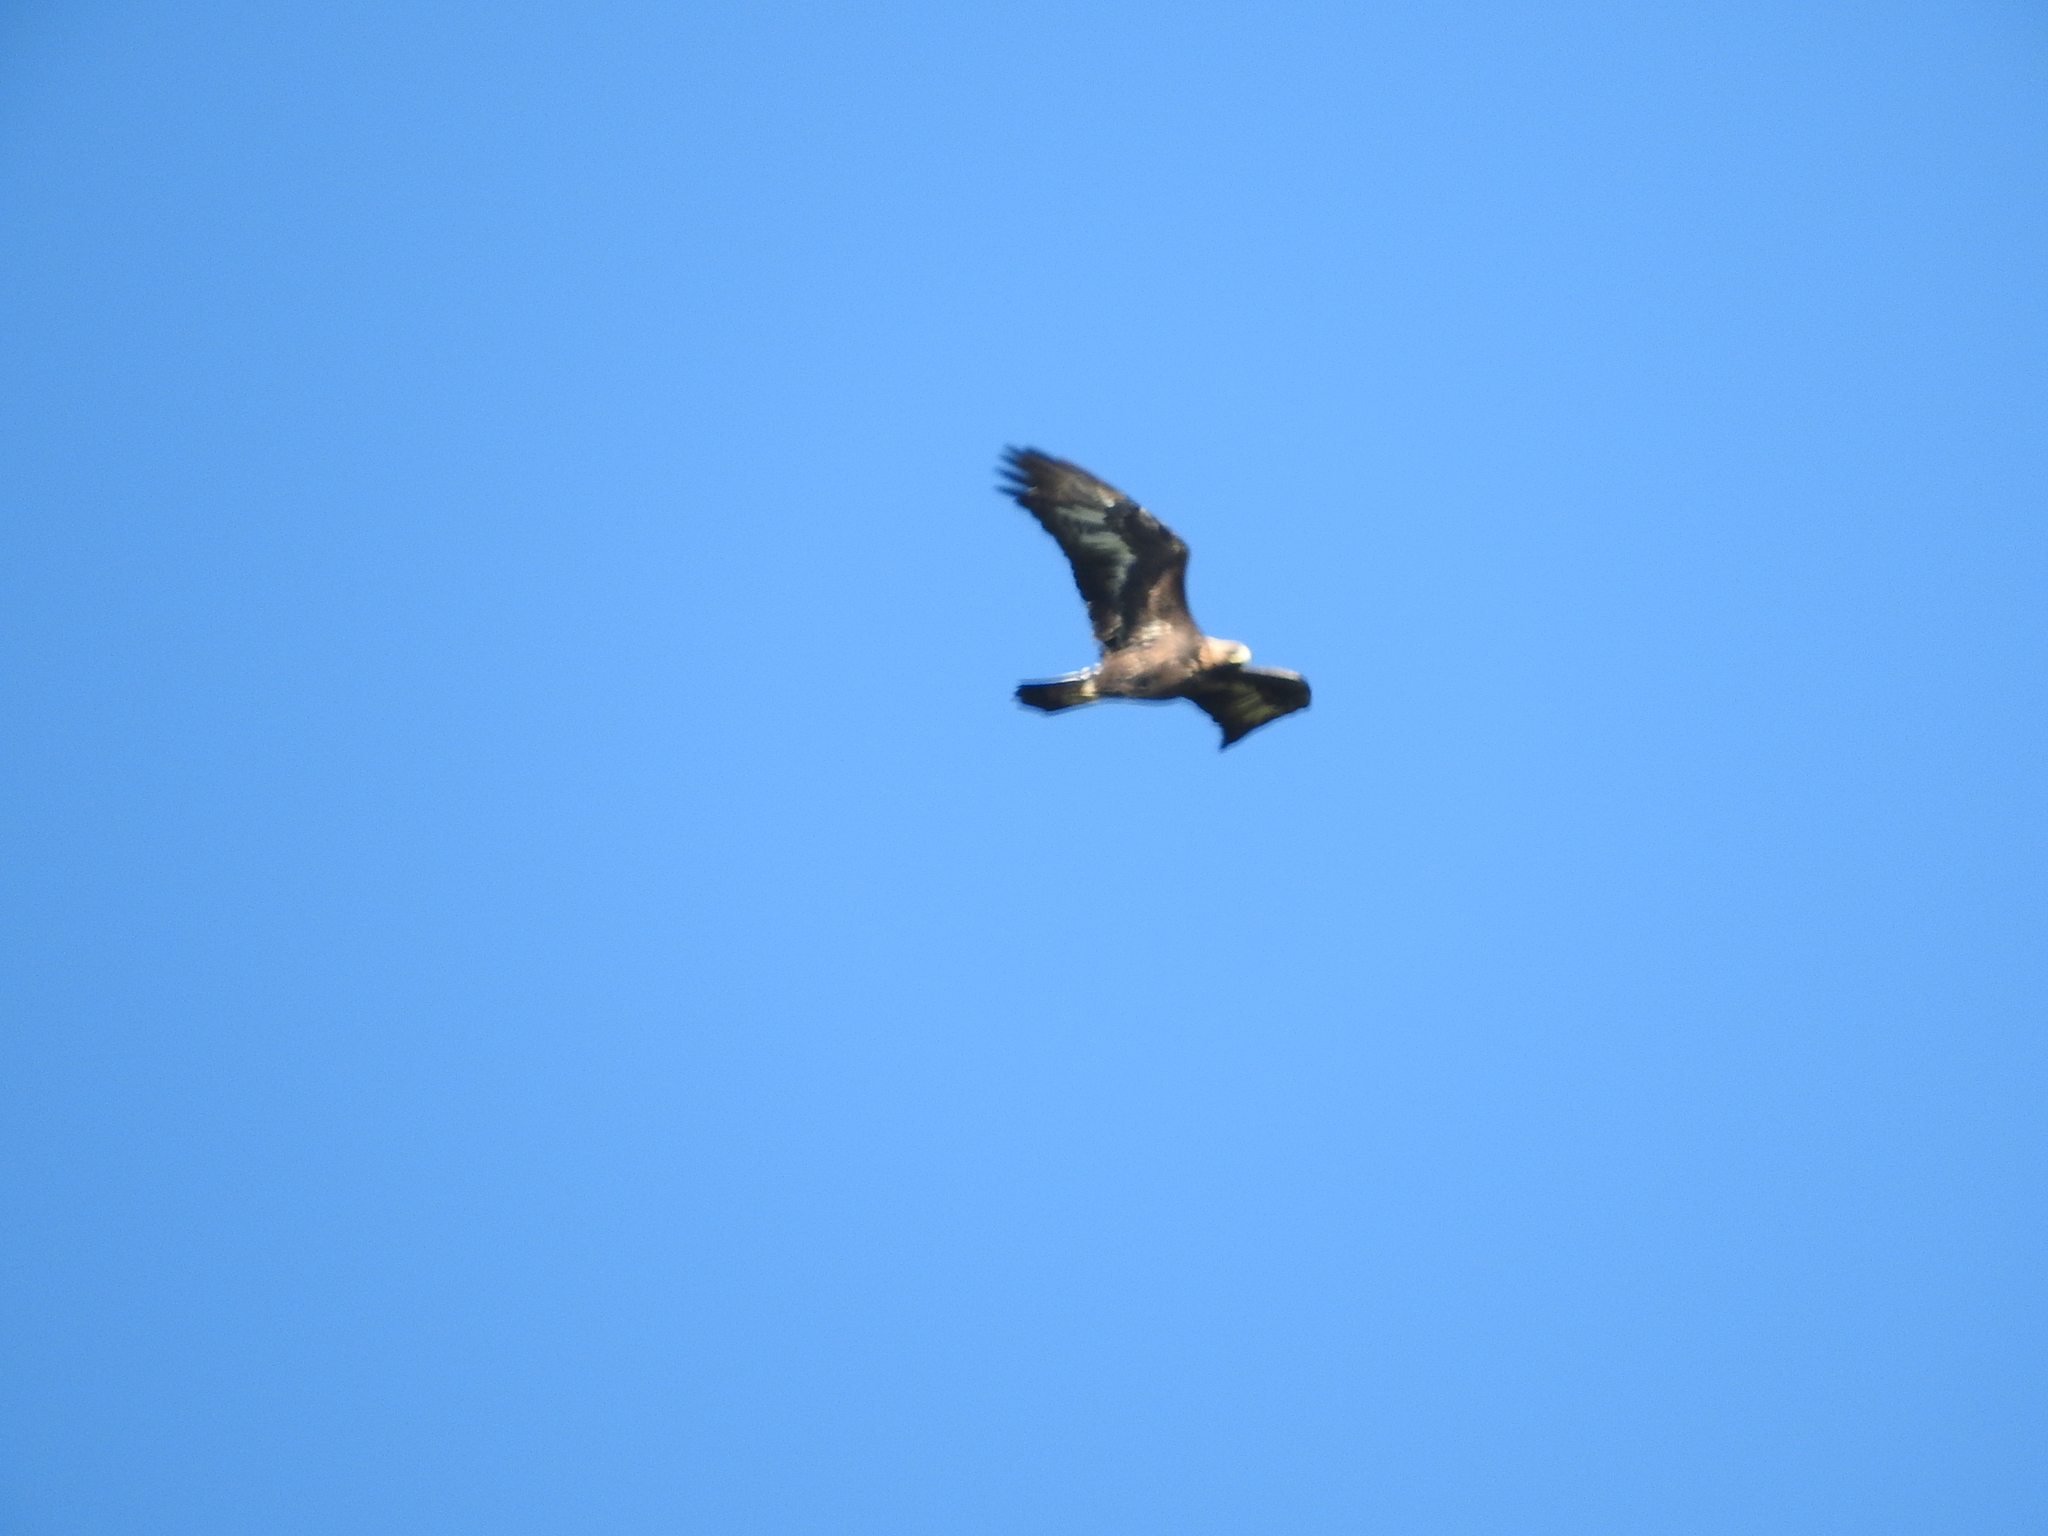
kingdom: Animalia
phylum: Chordata
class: Aves
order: Accipitriformes
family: Accipitridae
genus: Aquila
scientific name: Aquila chrysaetos
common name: Golden eagle
